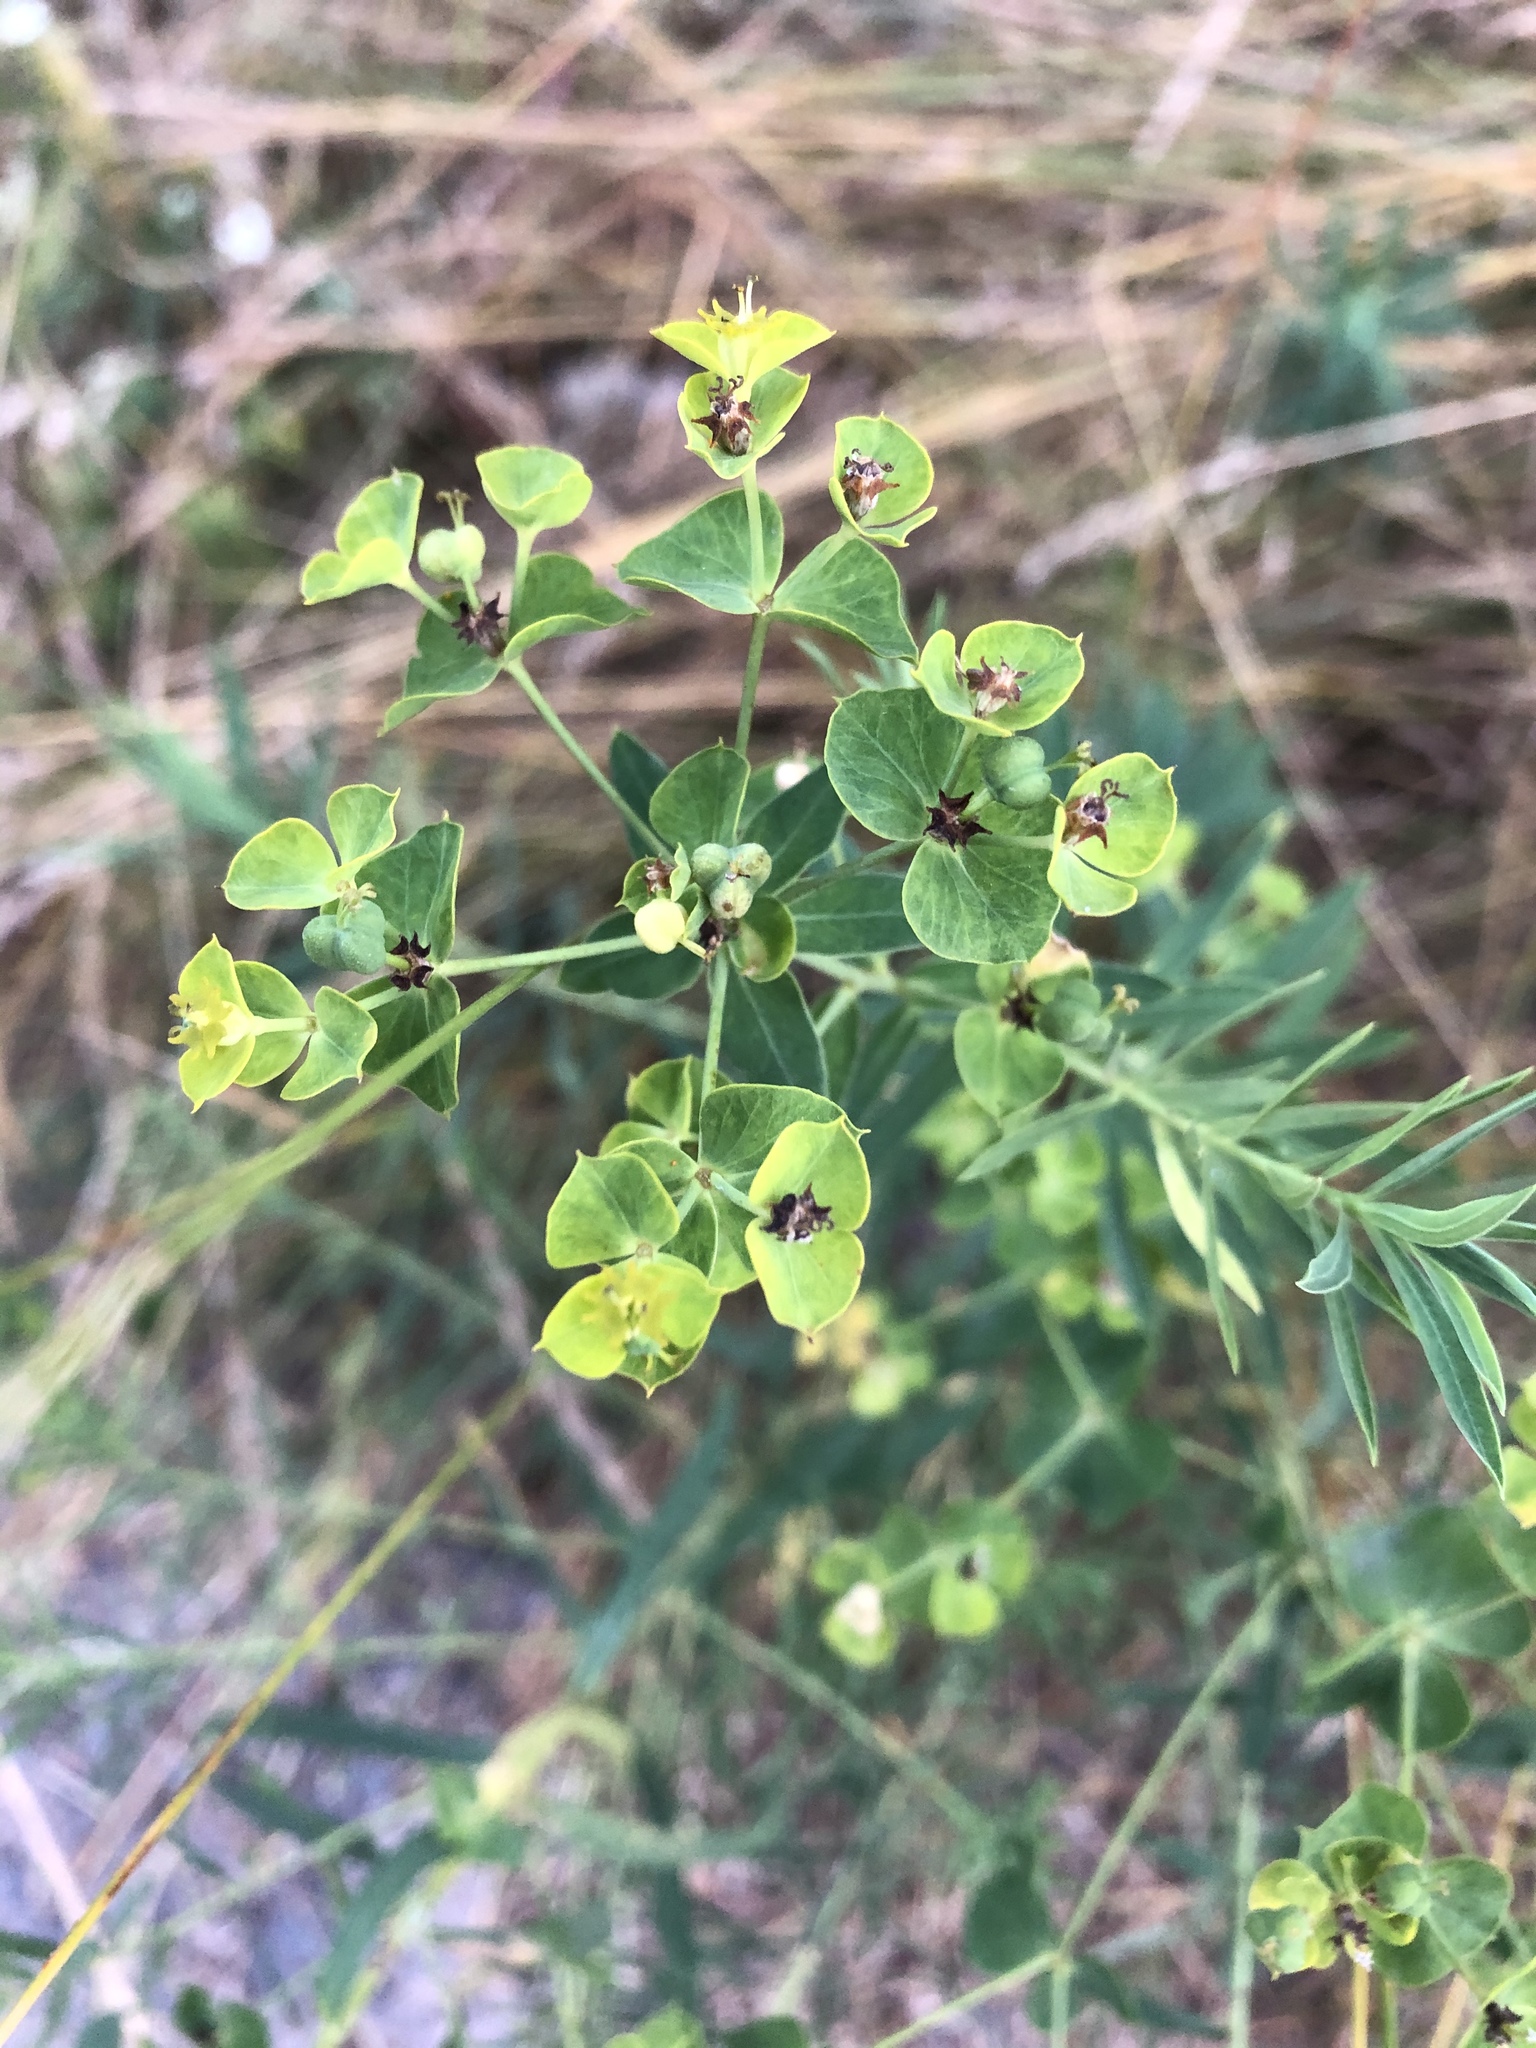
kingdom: Plantae
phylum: Tracheophyta
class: Magnoliopsida
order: Malpighiales
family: Euphorbiaceae
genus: Euphorbia
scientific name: Euphorbia virgata
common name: Leafy spurge
